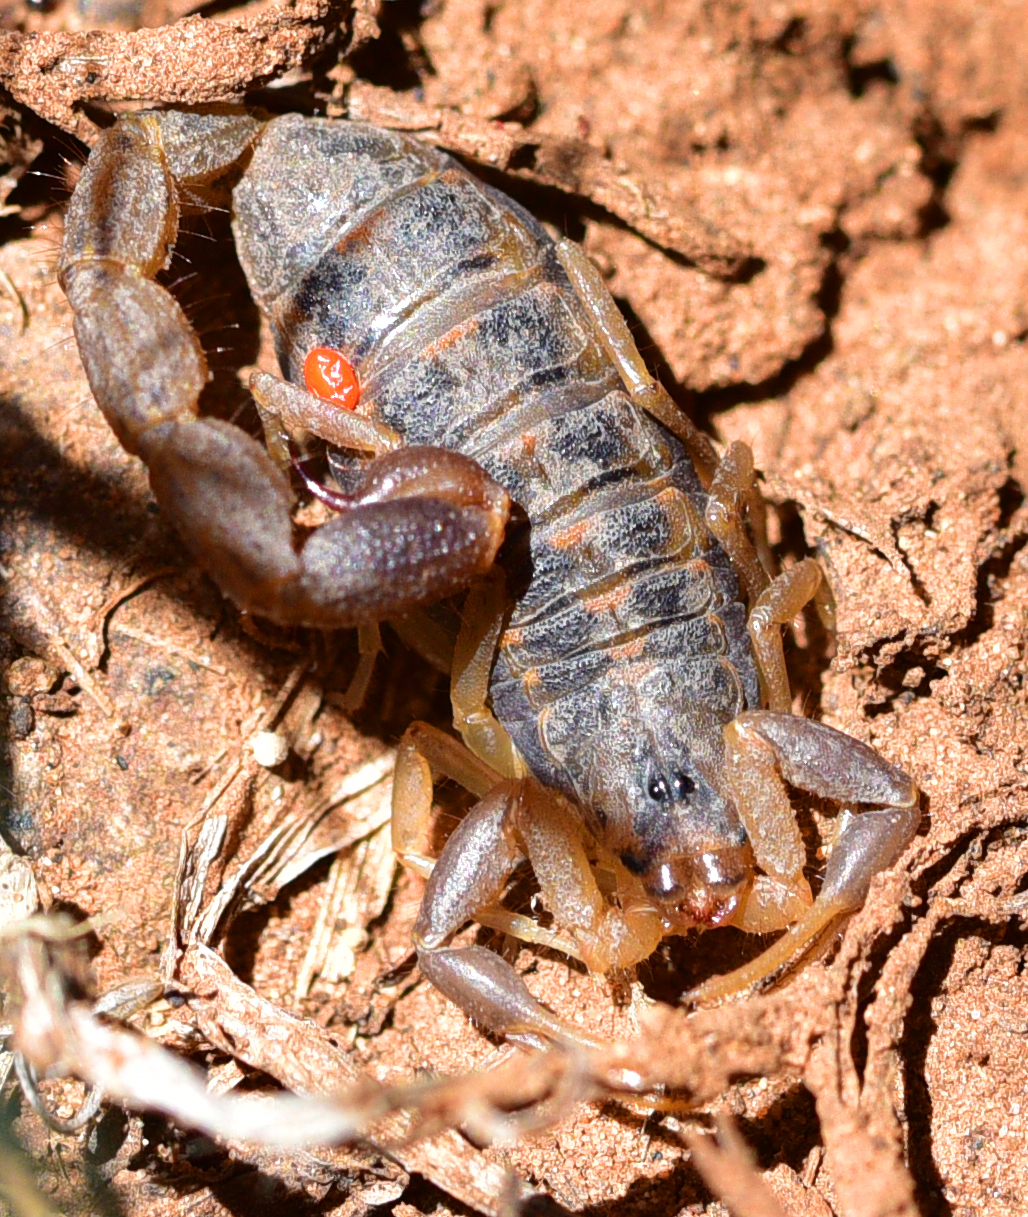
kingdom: Animalia
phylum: Arthropoda
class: Arachnida
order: Scorpiones
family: Buthidae
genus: Uroplectes
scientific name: Uroplectes triangulifer
